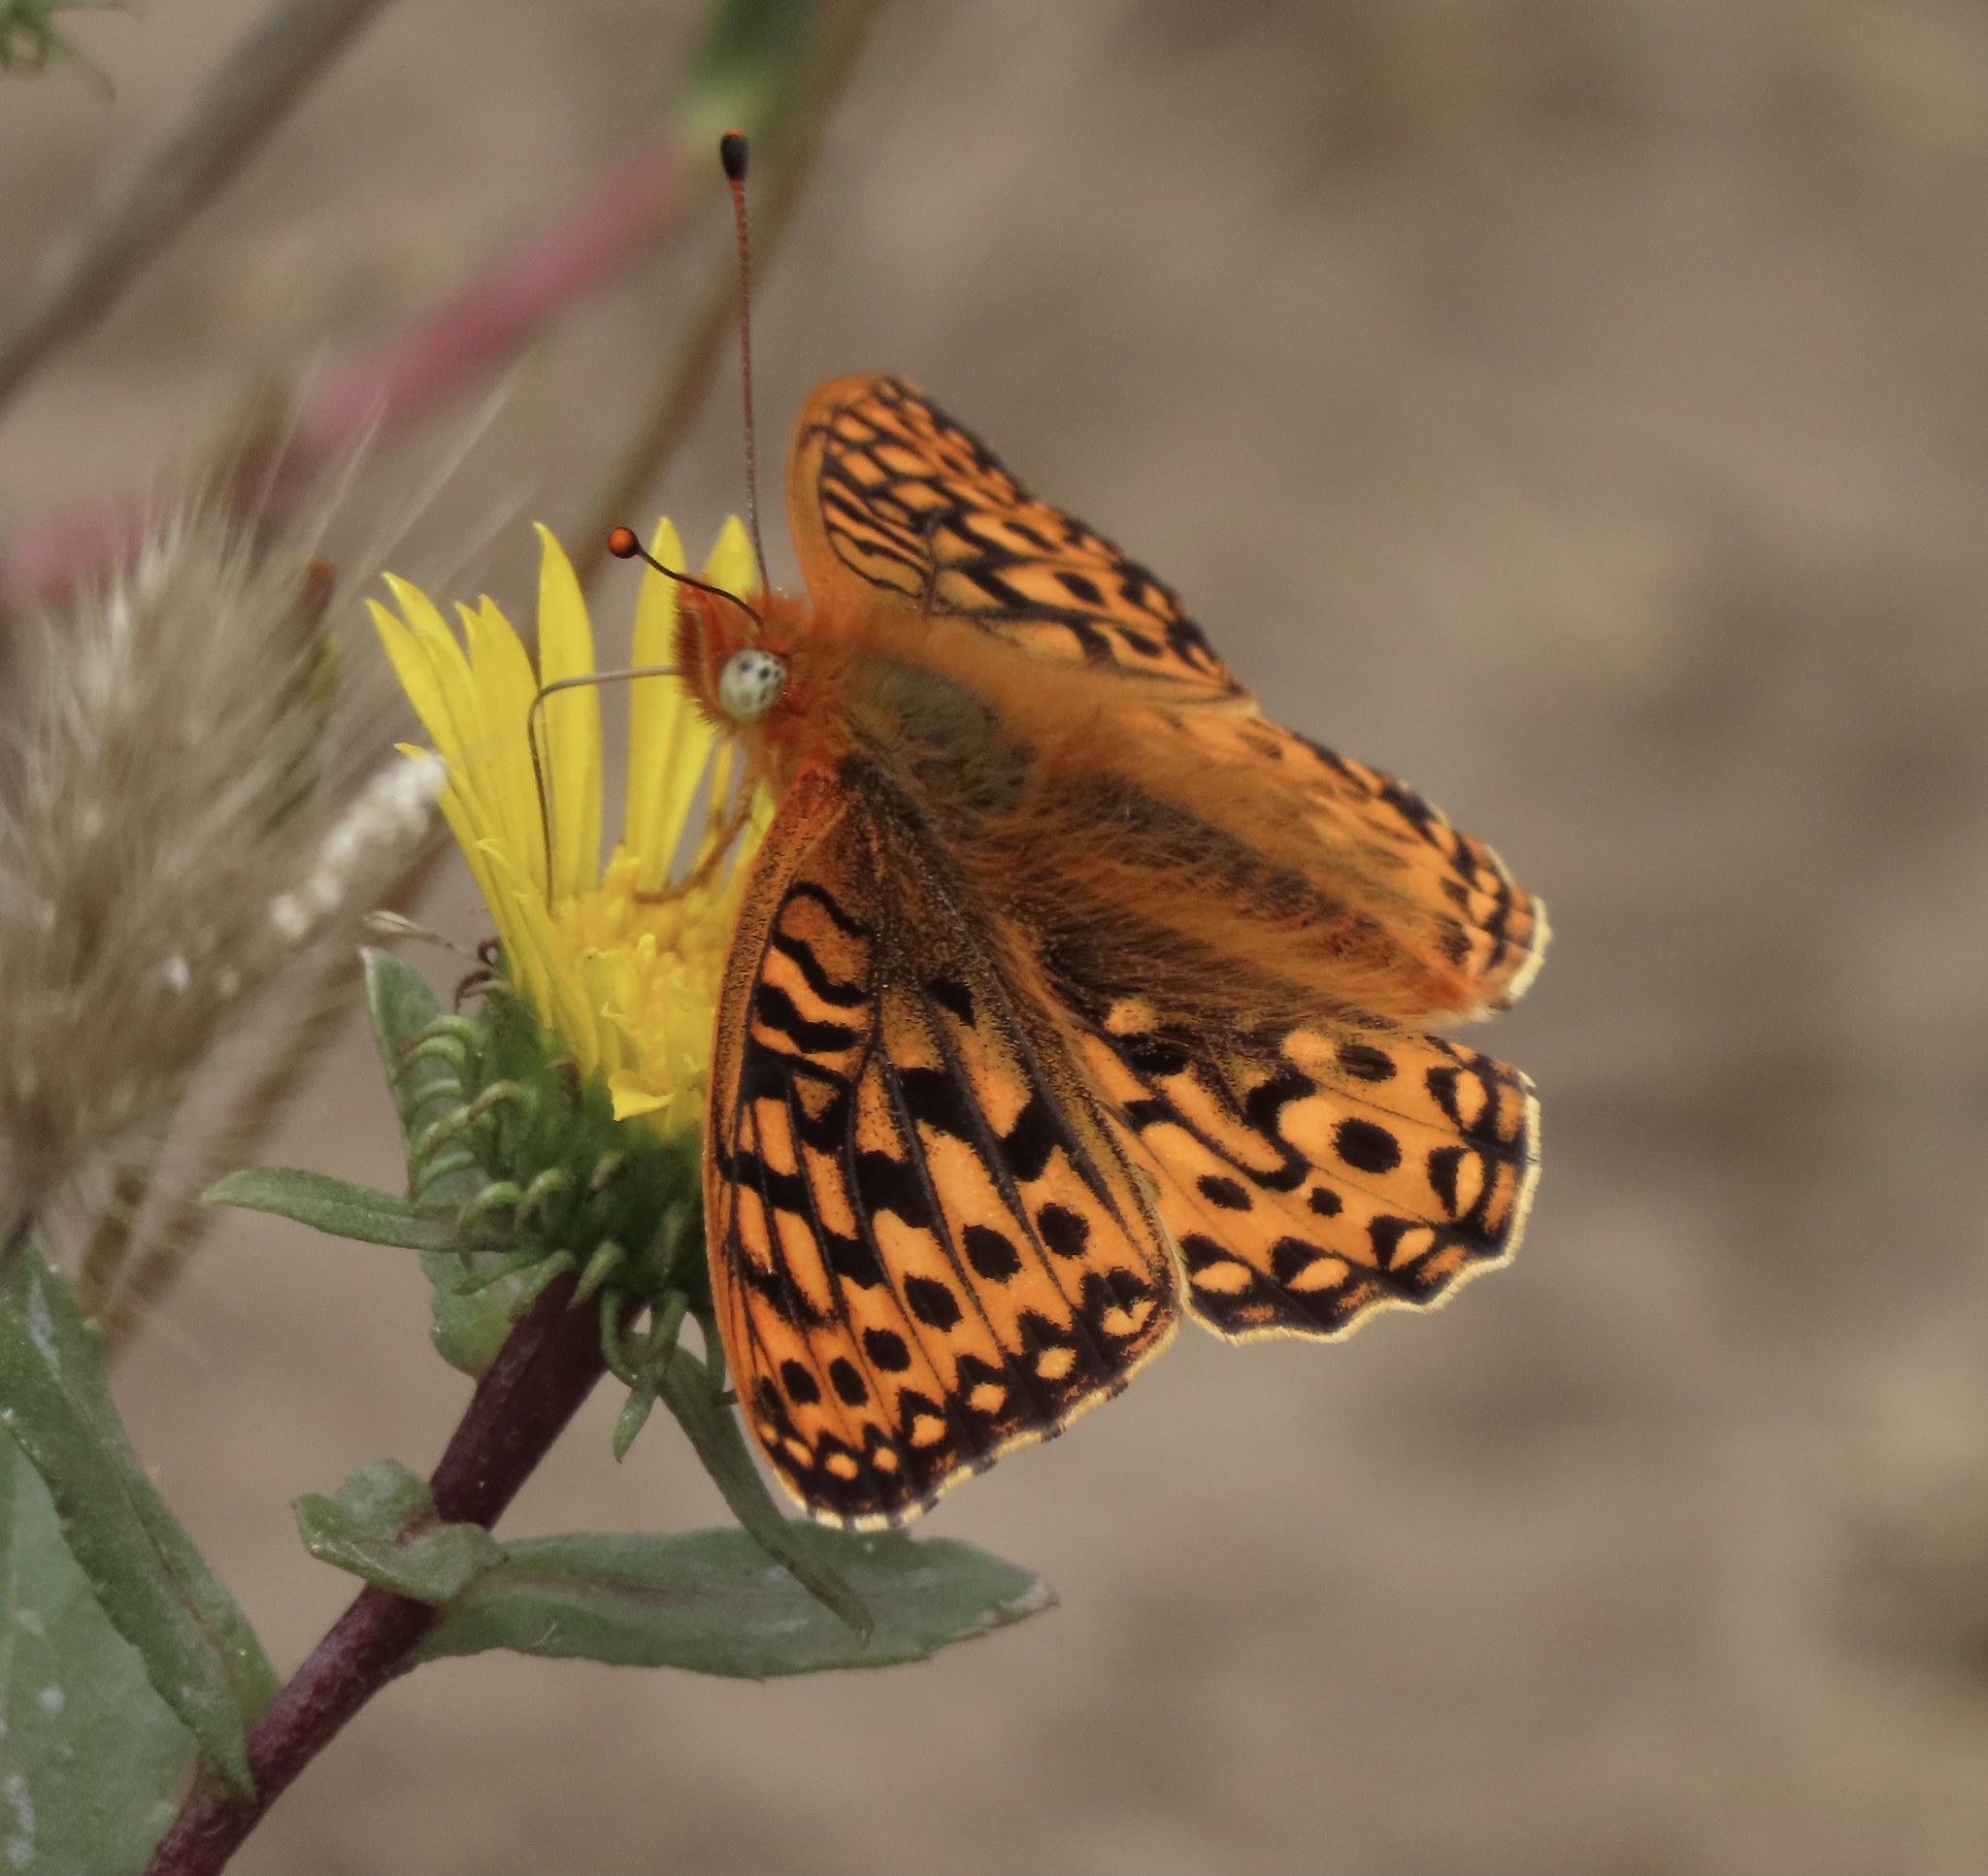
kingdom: Animalia
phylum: Arthropoda
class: Insecta
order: Lepidoptera
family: Nymphalidae
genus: Speyeria
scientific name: Speyeria zerene
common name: Zerene fritillary
